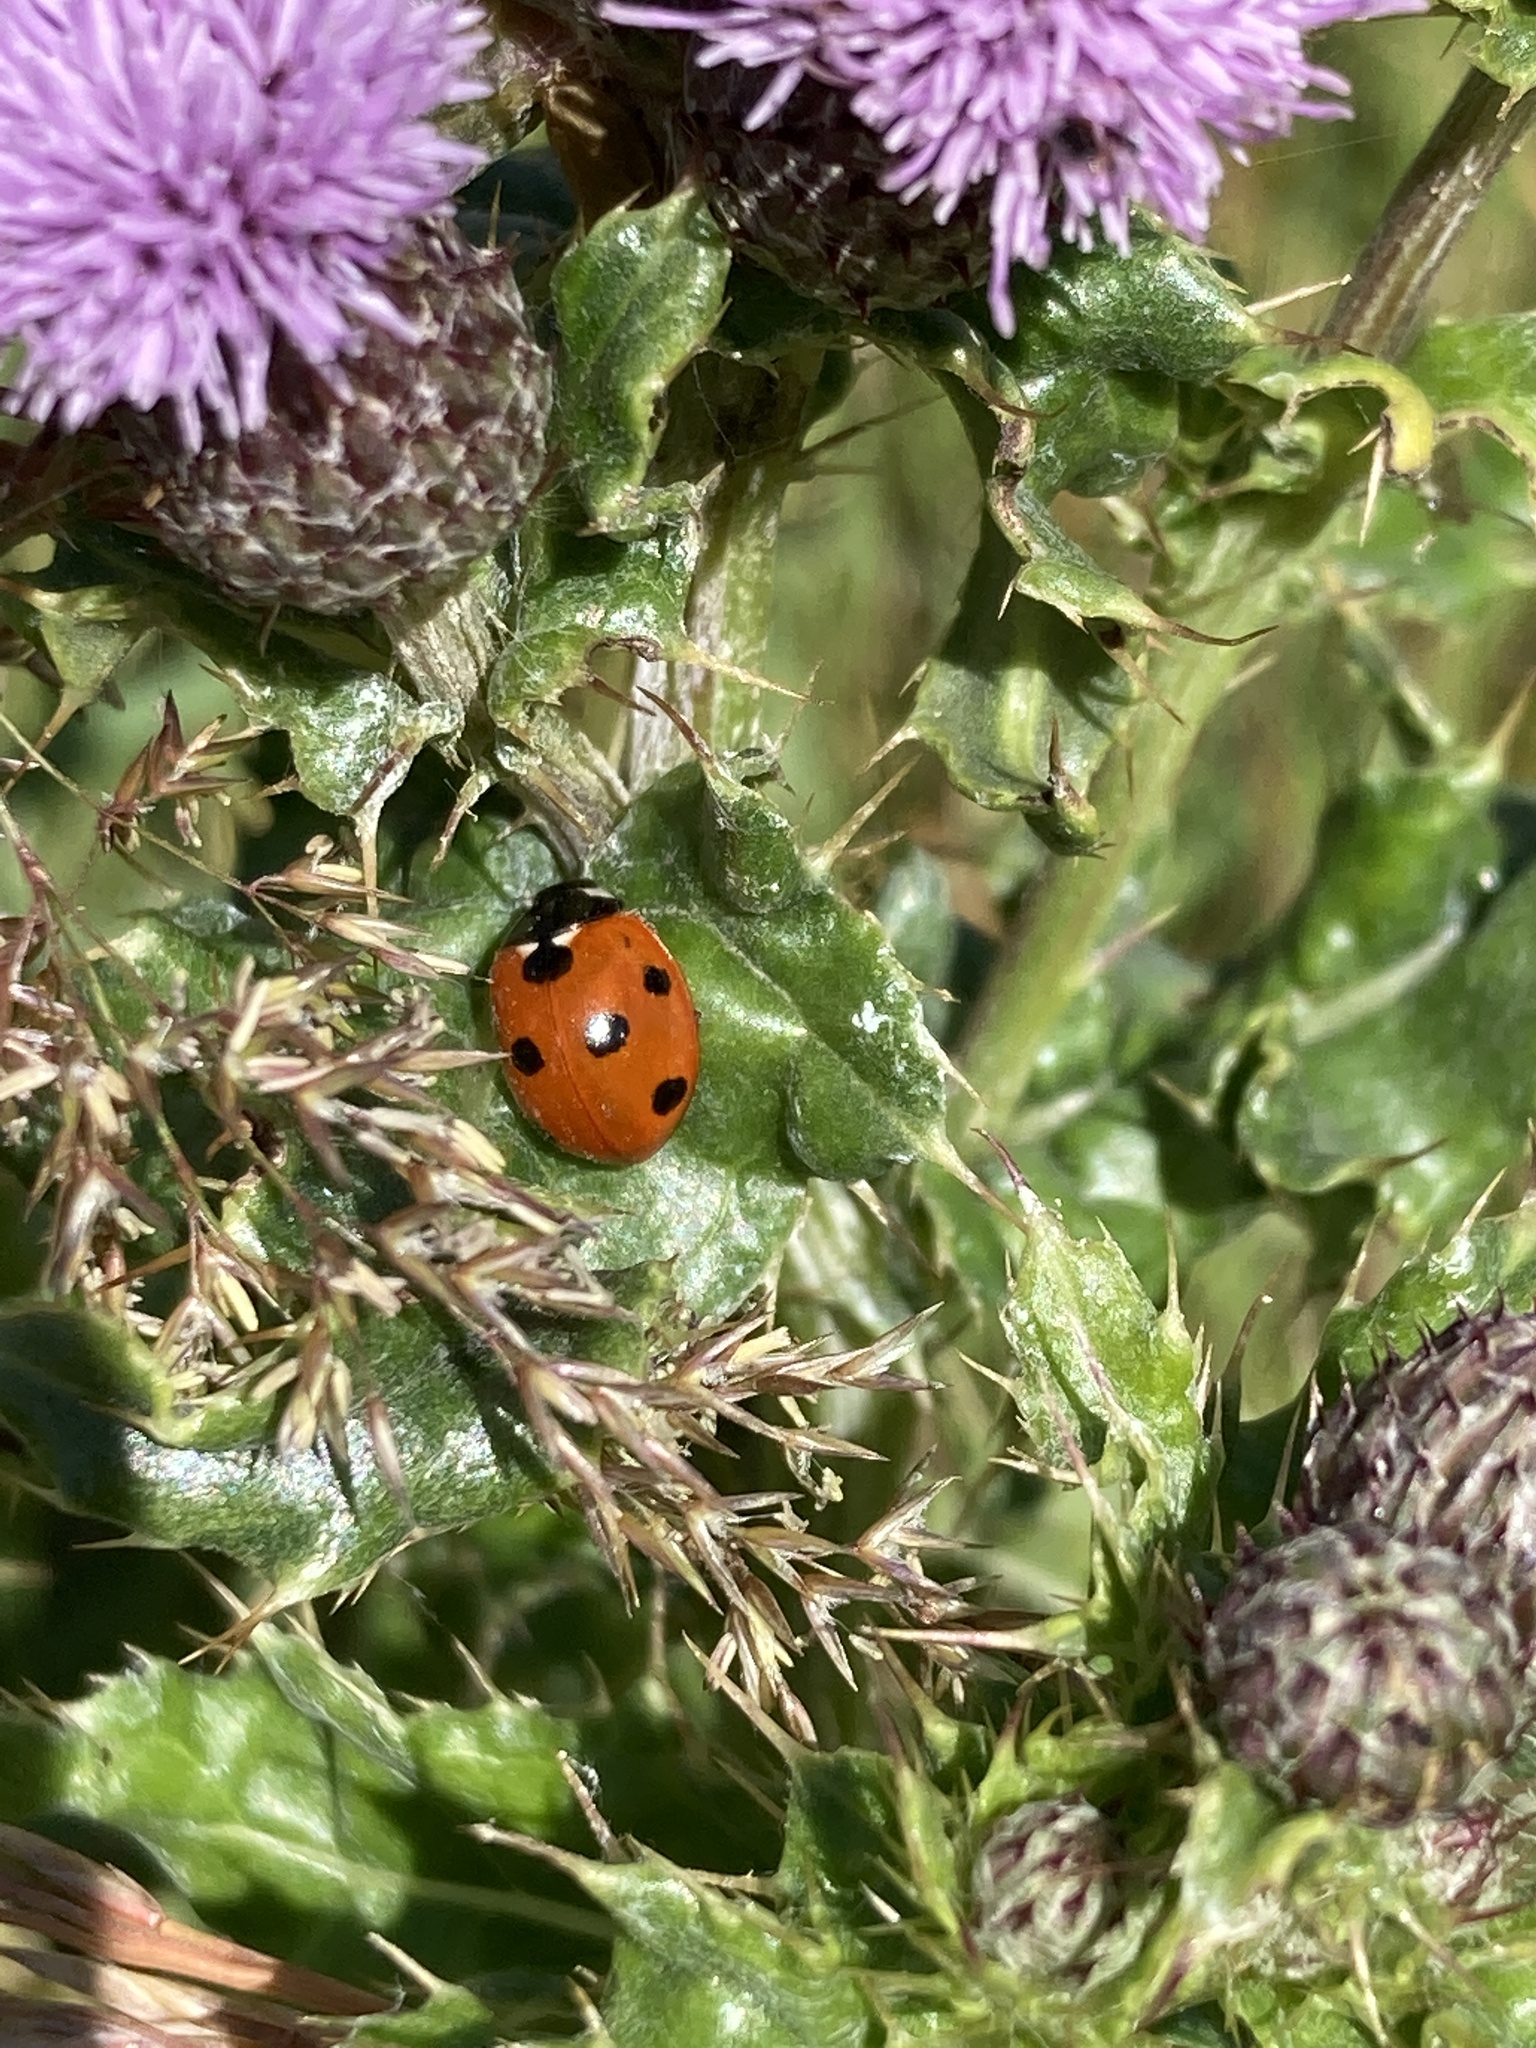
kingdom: Animalia
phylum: Arthropoda
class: Insecta
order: Coleoptera
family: Coccinellidae
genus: Coccinella
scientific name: Coccinella septempunctata
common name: Sevenspotted lady beetle
